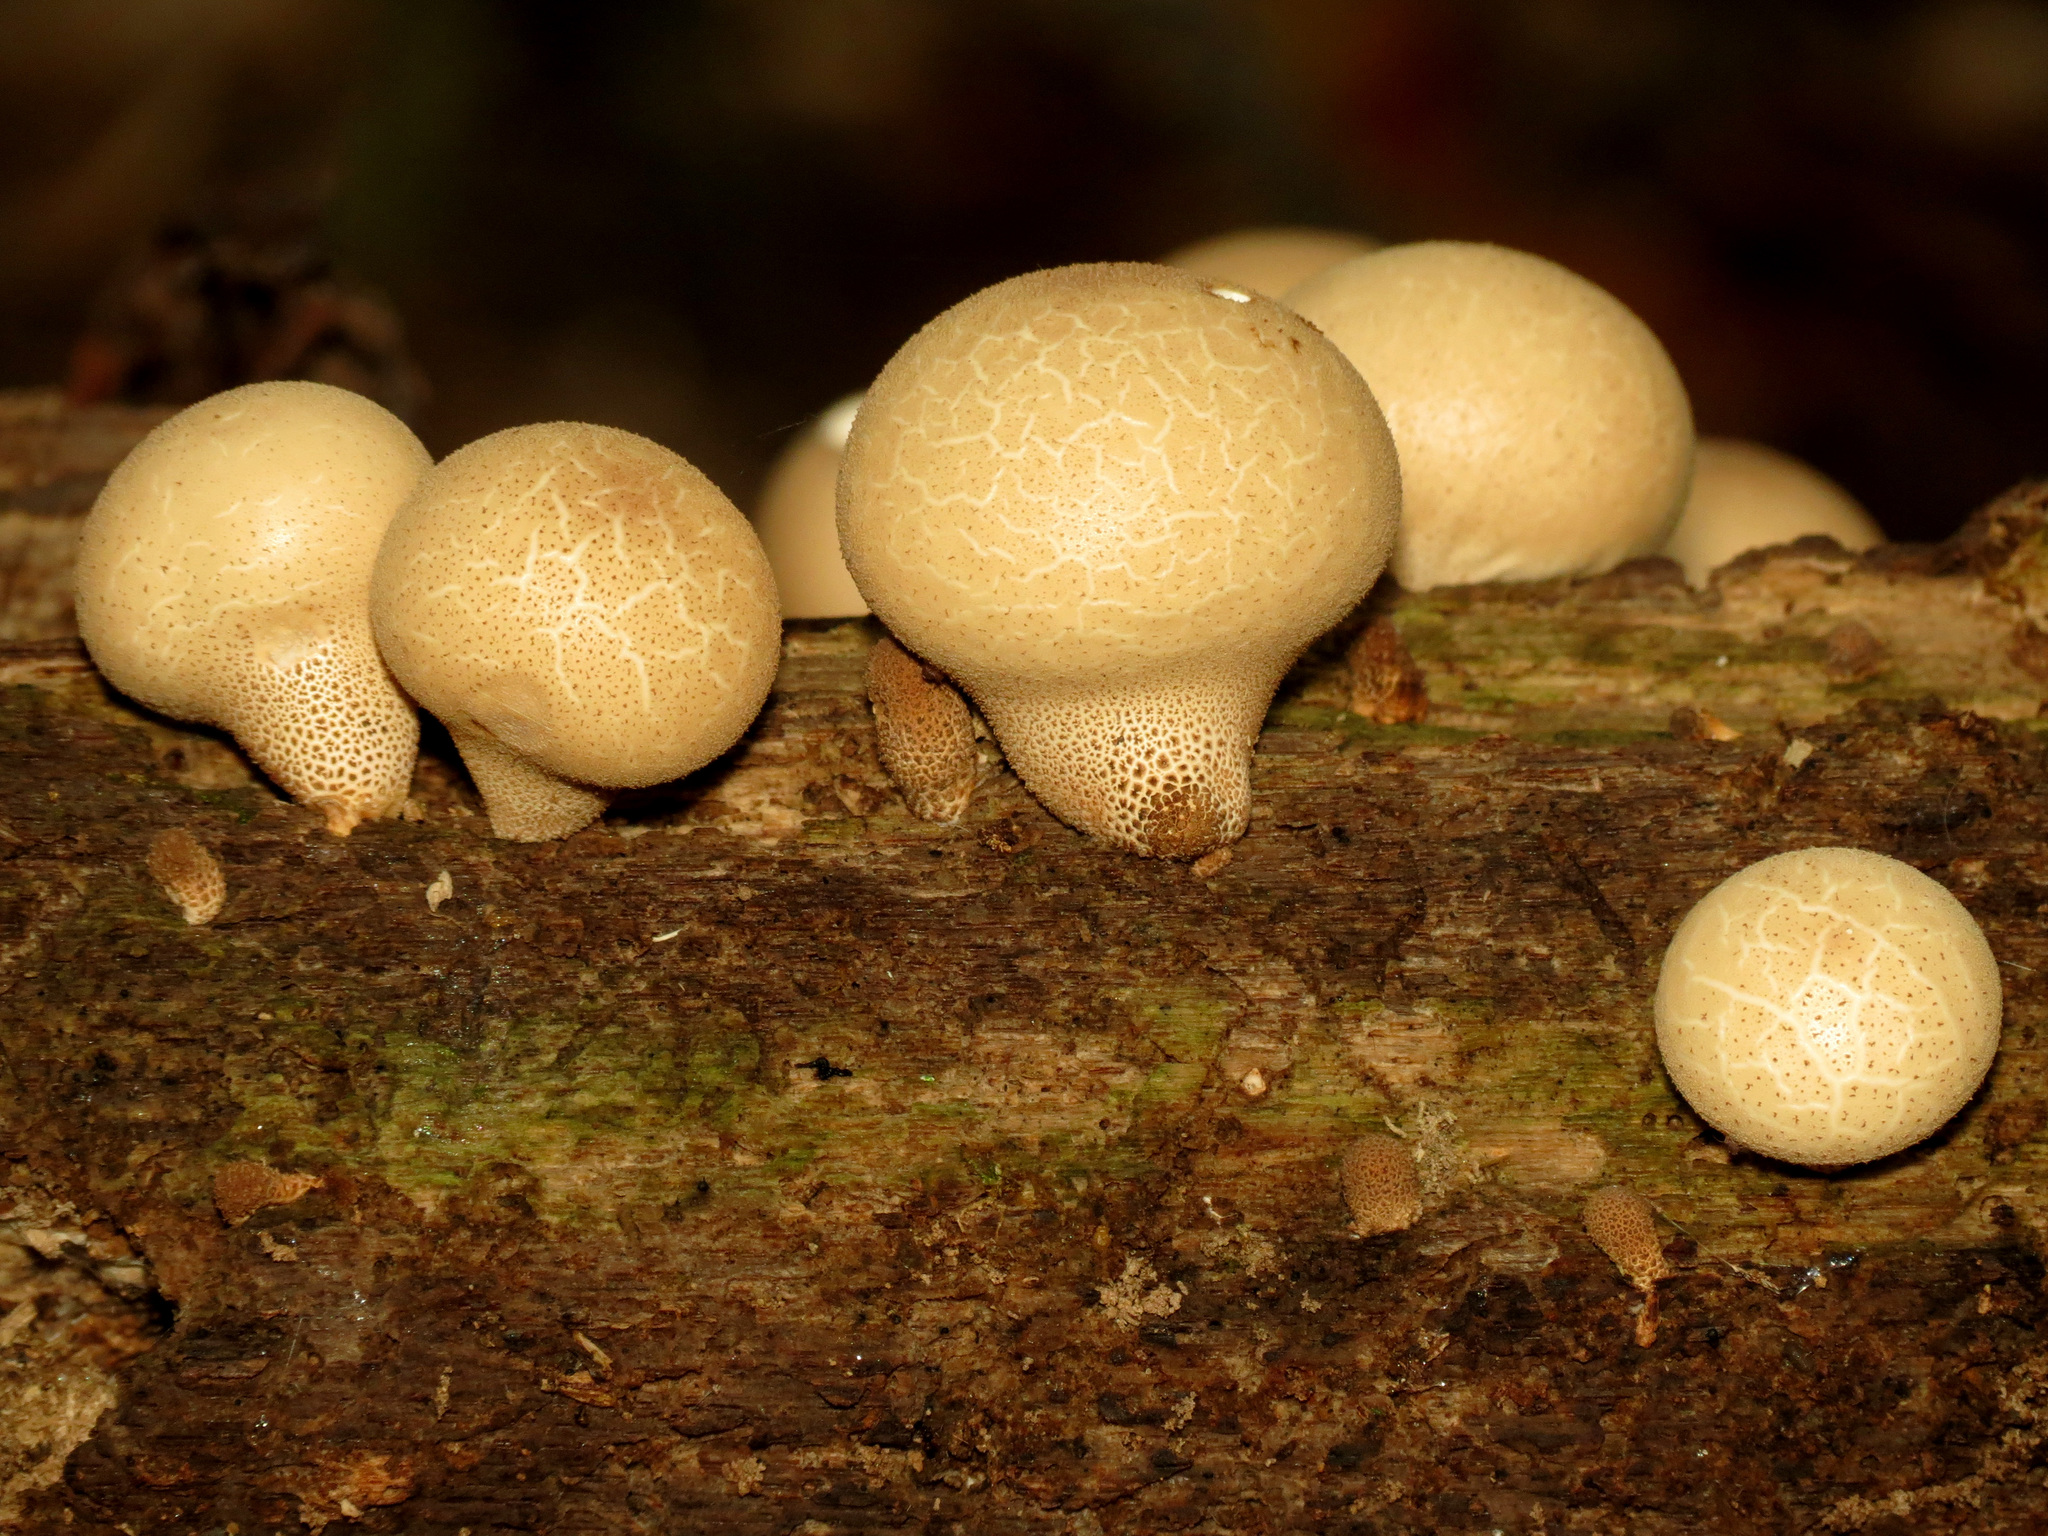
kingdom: Fungi
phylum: Basidiomycota
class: Agaricomycetes
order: Agaricales
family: Lycoperdaceae
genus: Apioperdon
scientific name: Apioperdon pyriforme
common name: Pear-shaped puffball
